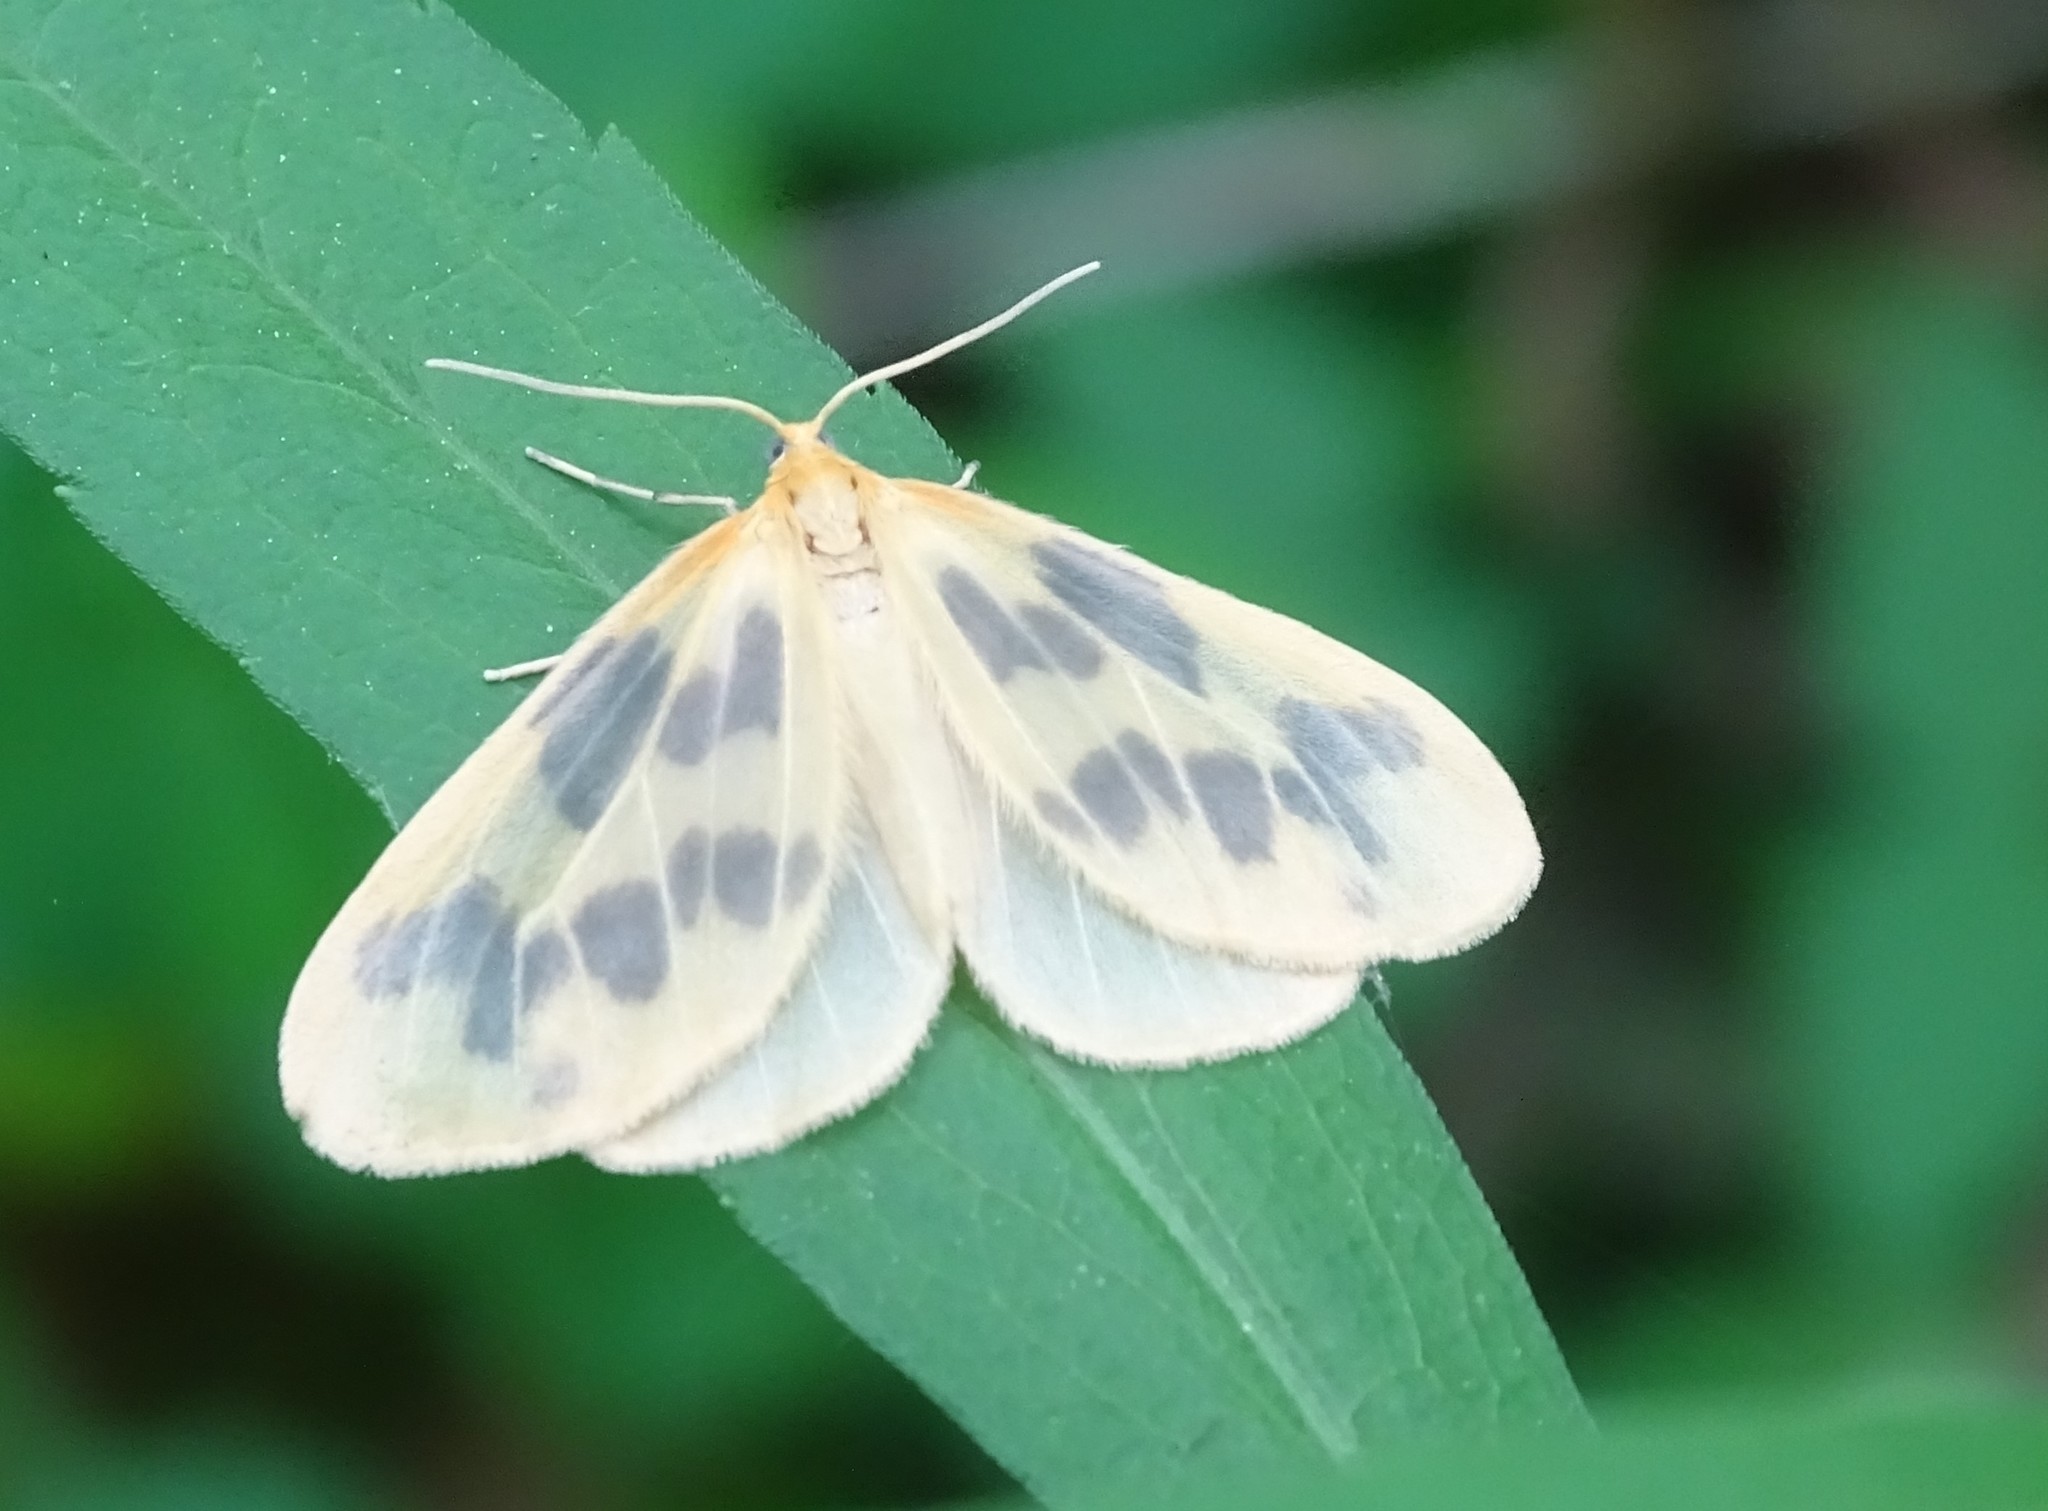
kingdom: Animalia
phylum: Arthropoda
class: Insecta
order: Lepidoptera
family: Geometridae
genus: Eubaphe
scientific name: Eubaphe mendica
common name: Beggar
